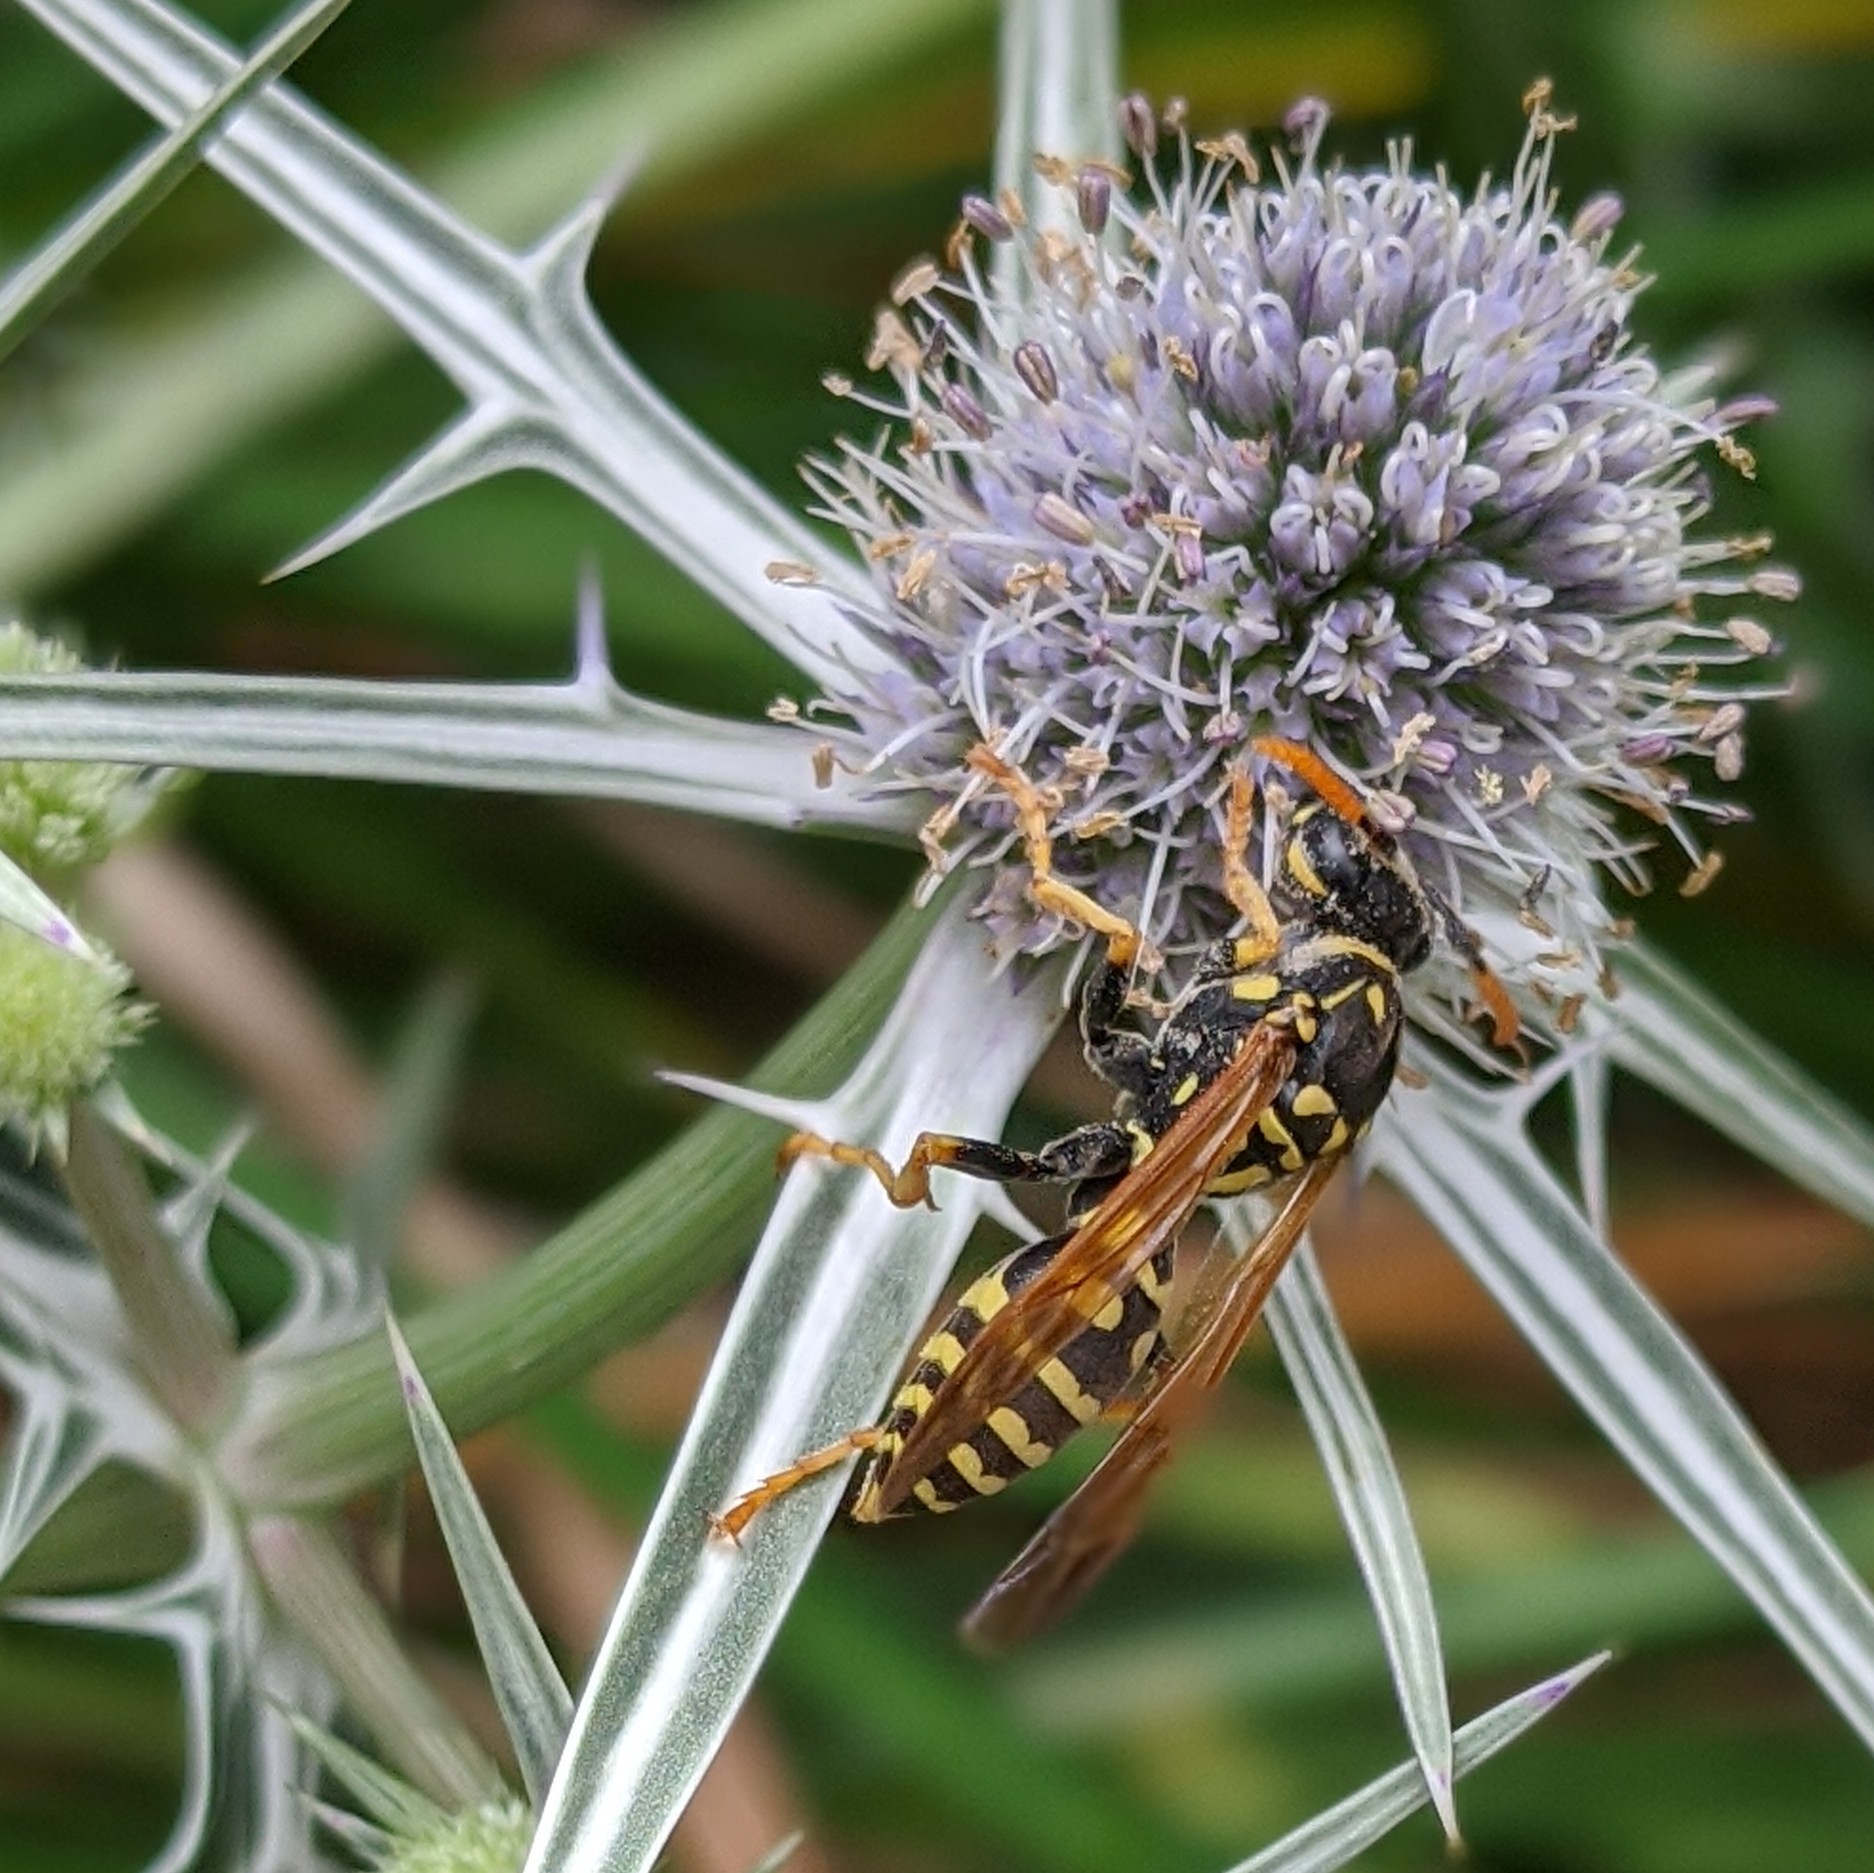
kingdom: Animalia
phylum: Arthropoda
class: Insecta
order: Hymenoptera
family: Eumenidae
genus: Polistes
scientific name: Polistes dominula
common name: Paper wasp
